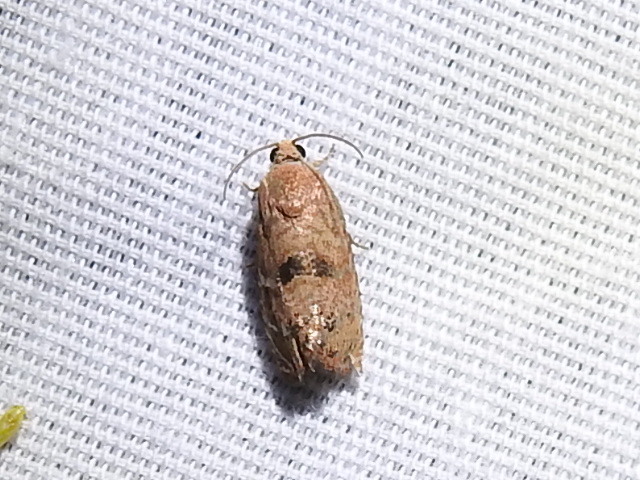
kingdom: Animalia
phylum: Arthropoda
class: Insecta
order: Lepidoptera
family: Tortricidae
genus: Cydia
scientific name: Cydia latiferreana
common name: Filbertworm moth
